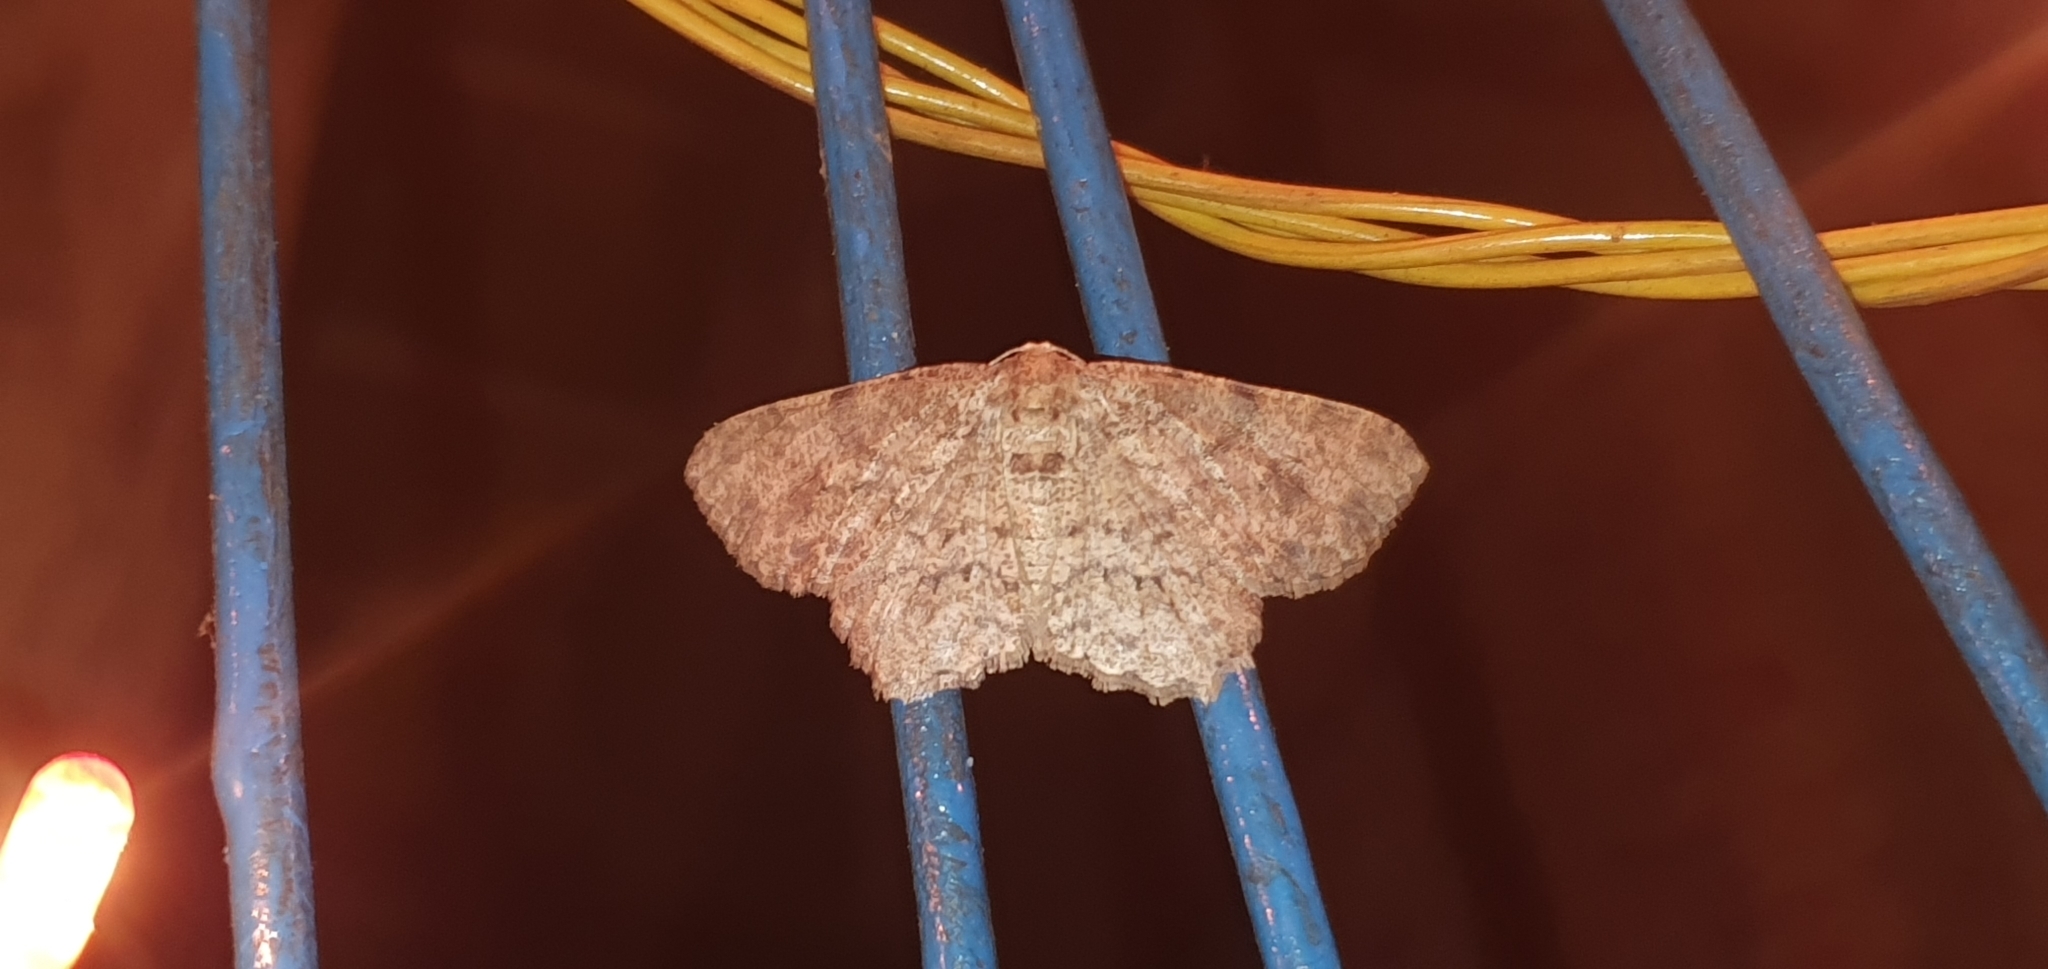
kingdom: Animalia
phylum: Arthropoda
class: Insecta
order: Lepidoptera
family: Geometridae
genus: Ectropis
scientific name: Ectropis bhurmitra
